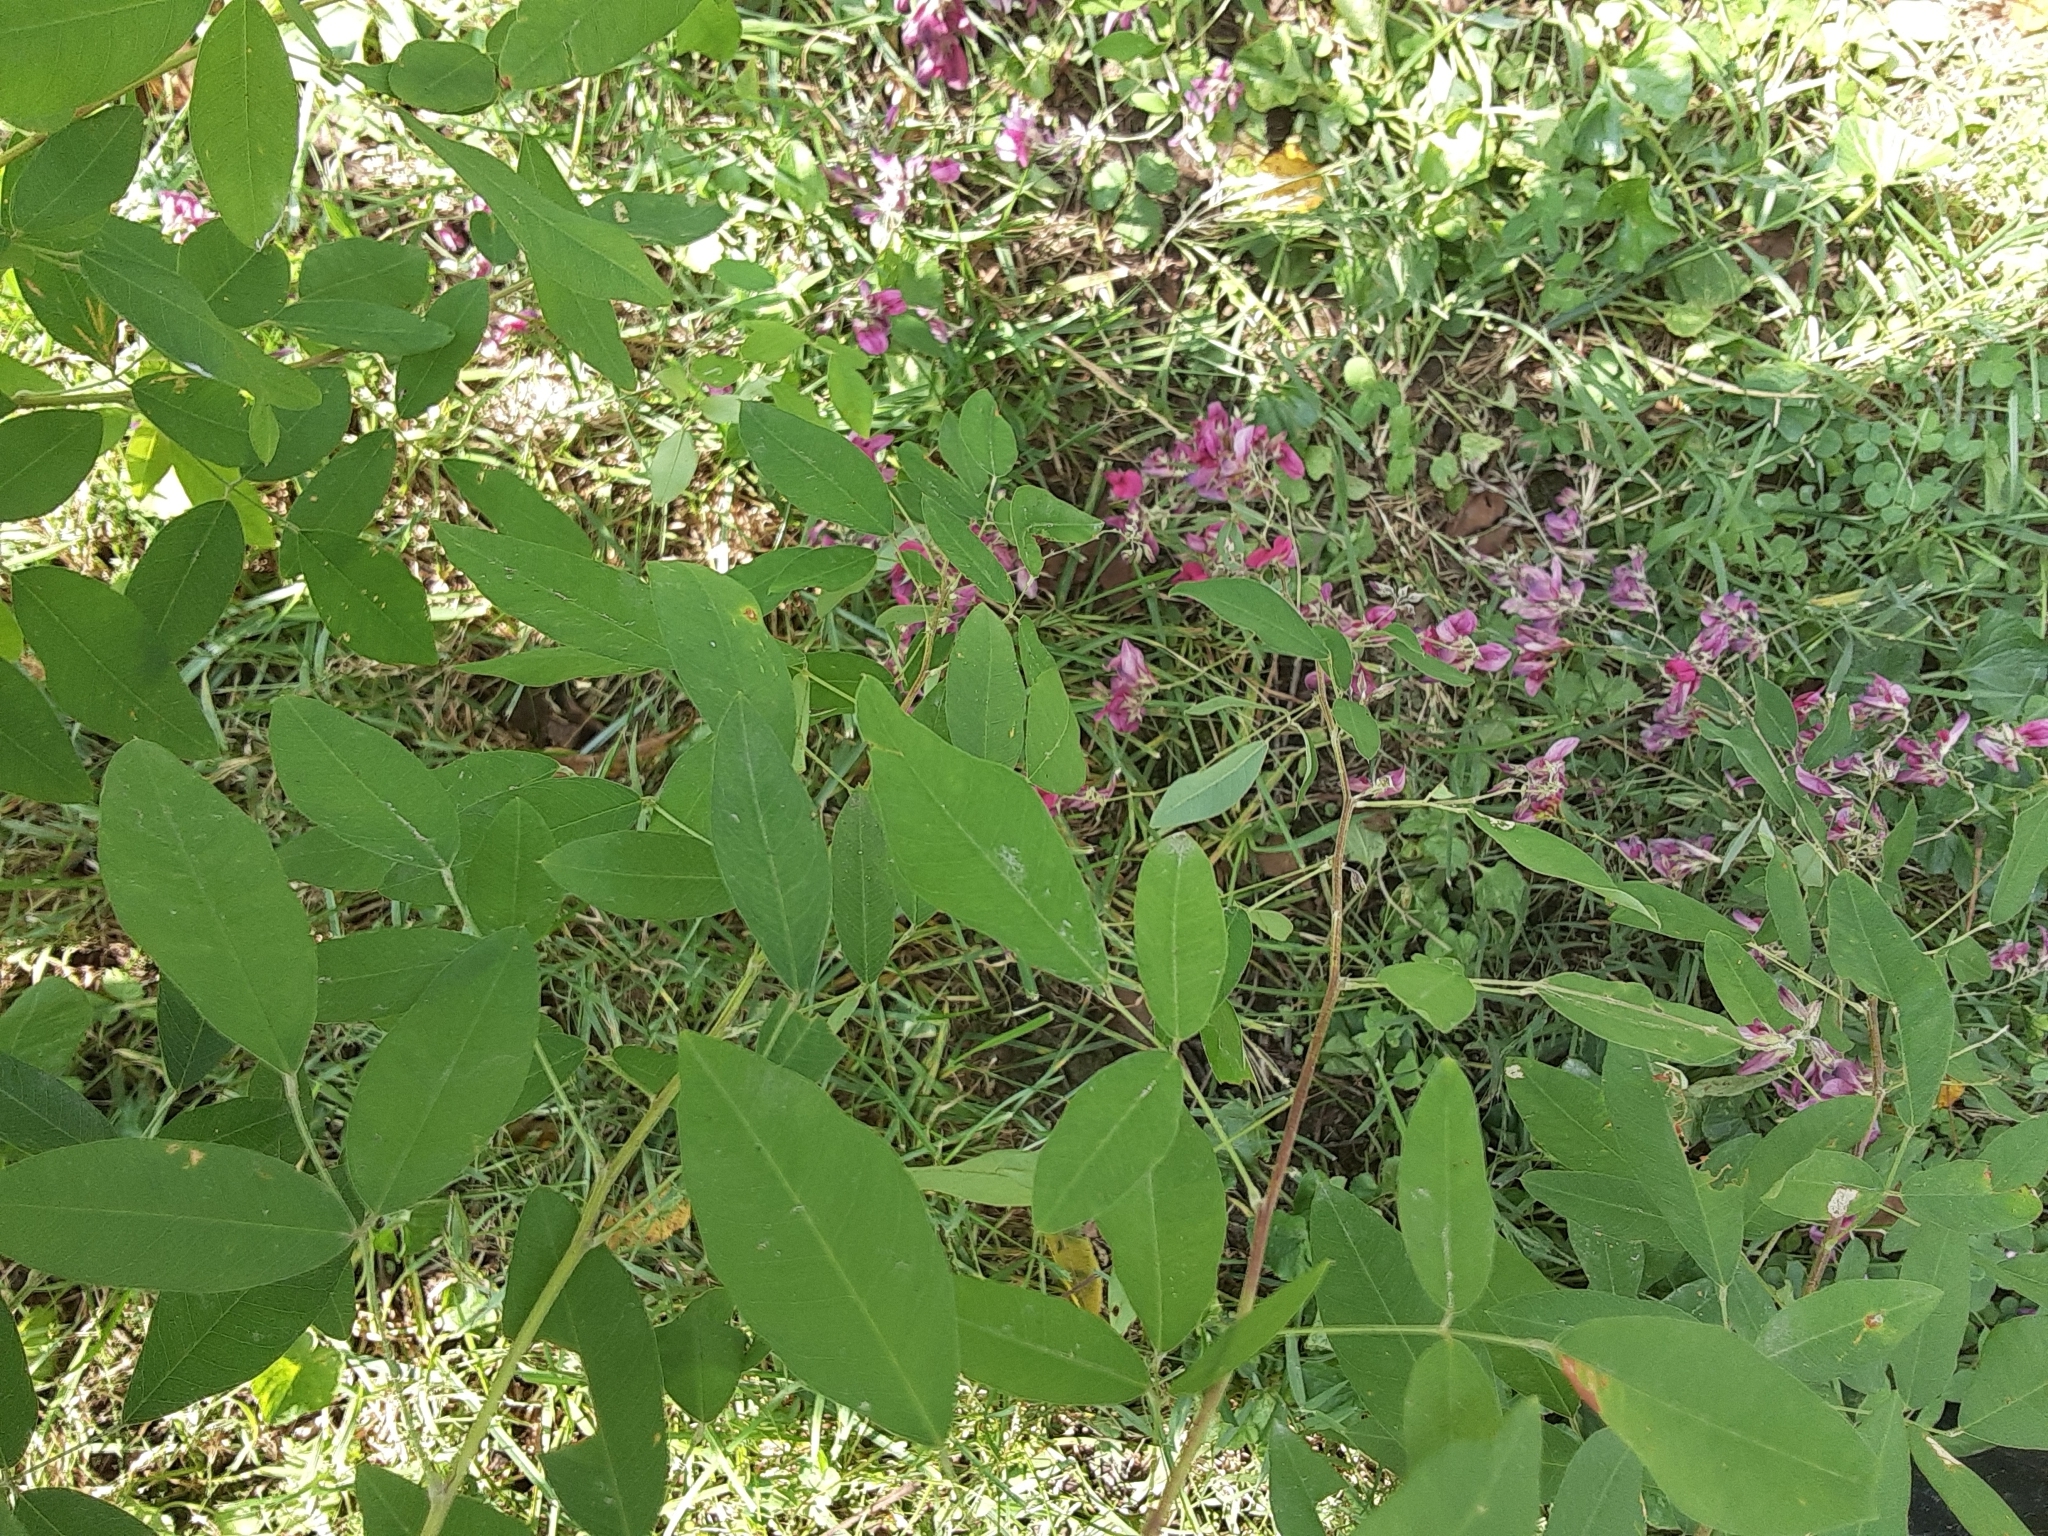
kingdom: Plantae
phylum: Tracheophyta
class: Magnoliopsida
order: Fabales
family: Fabaceae
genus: Lespedeza
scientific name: Lespedeza bicolor
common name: Shrub lespedeza
